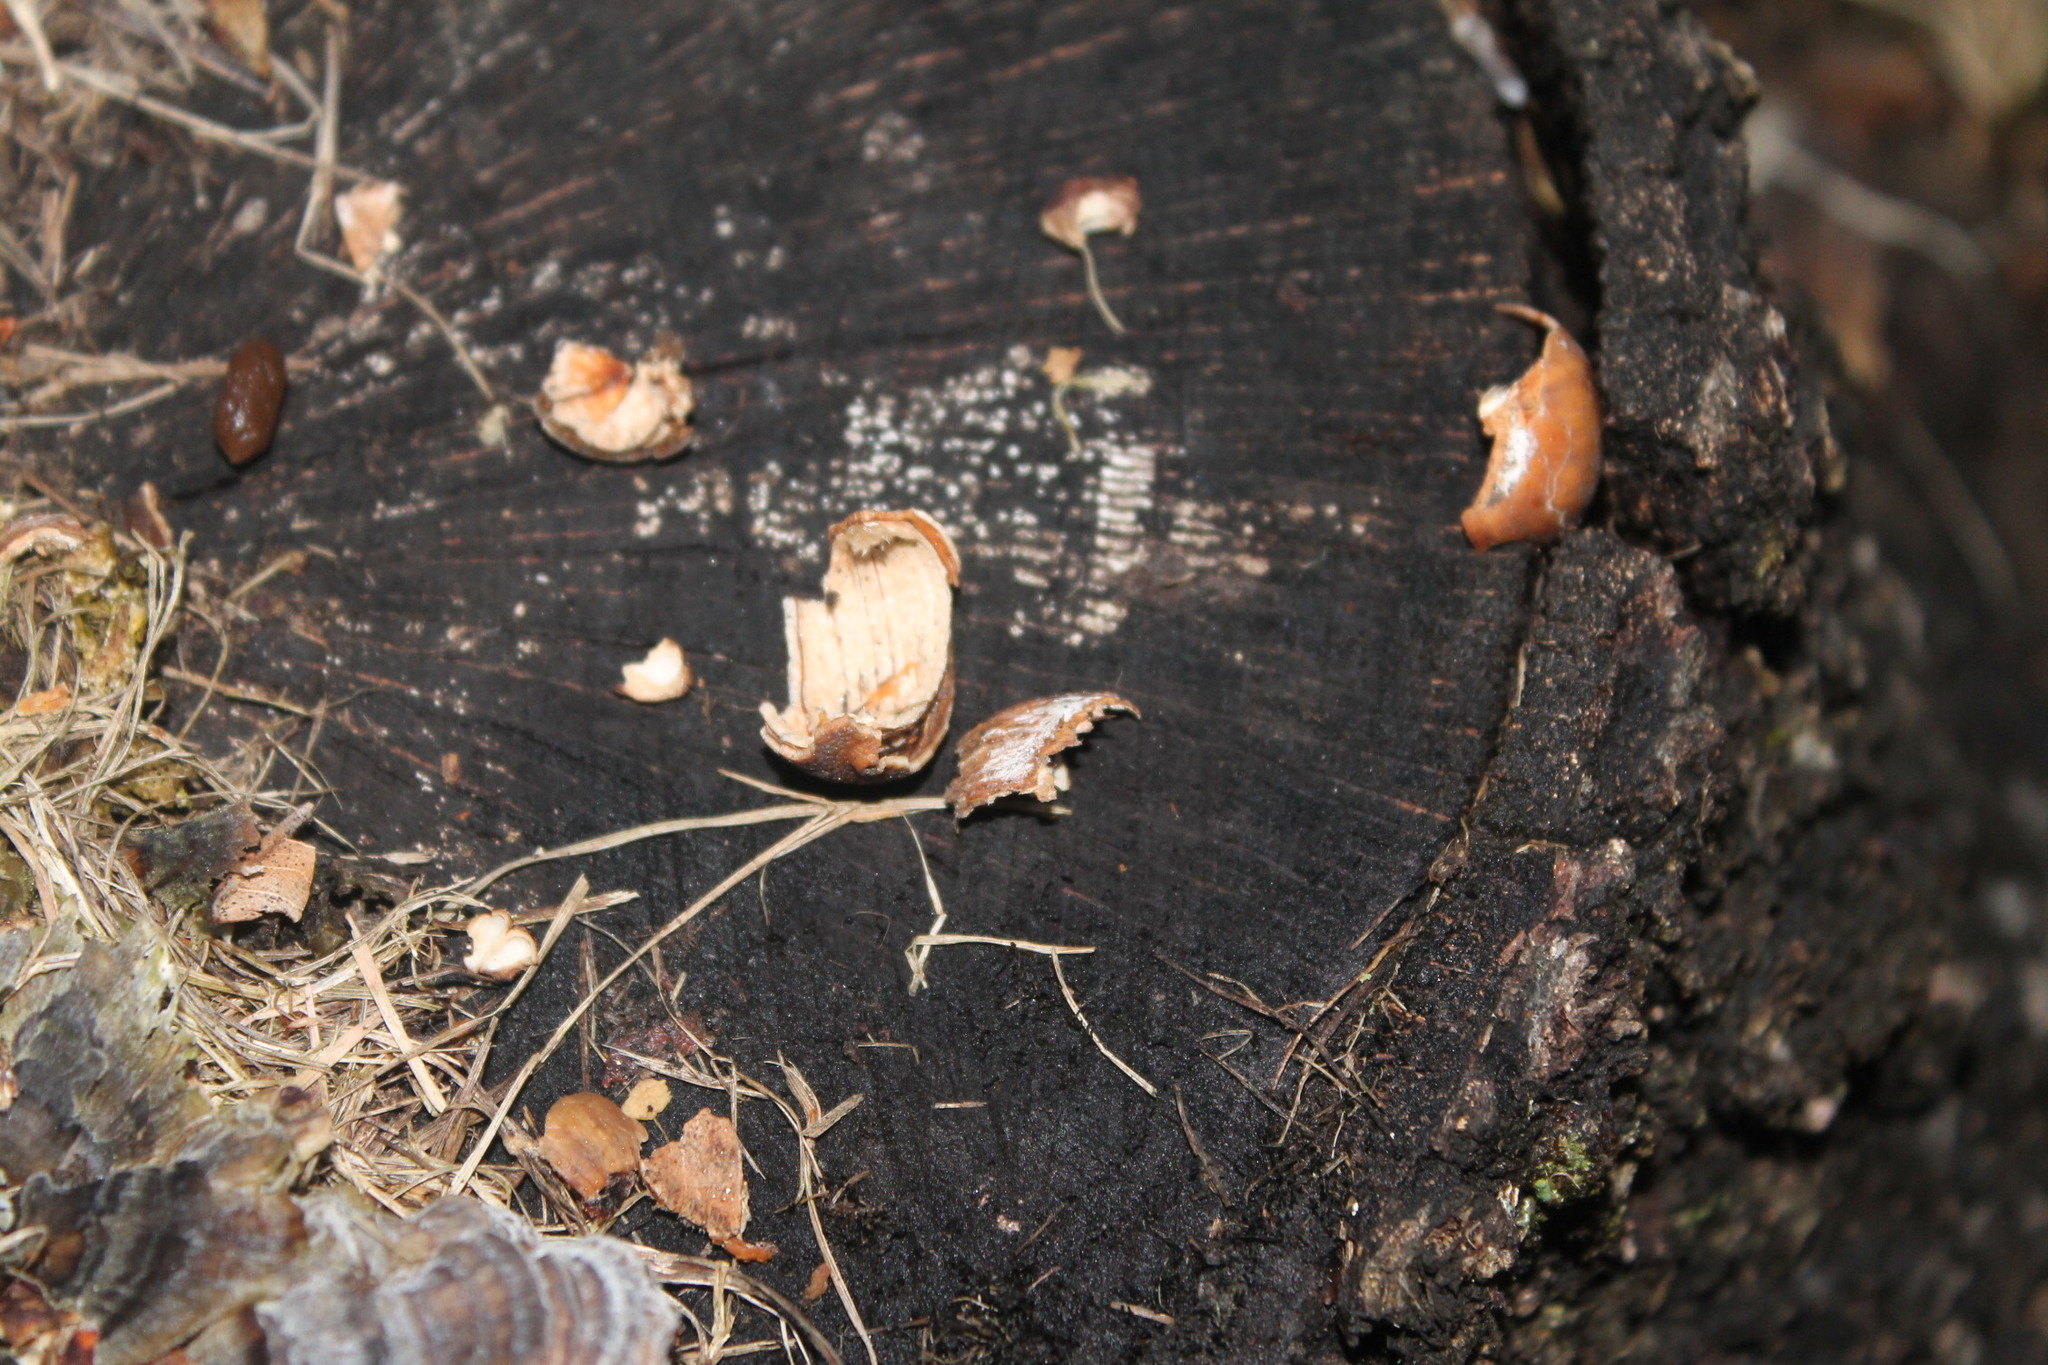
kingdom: Animalia
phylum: Chordata
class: Mammalia
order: Rodentia
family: Sciuridae
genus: Sciurus
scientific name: Sciurus carolinensis
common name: Eastern gray squirrel
